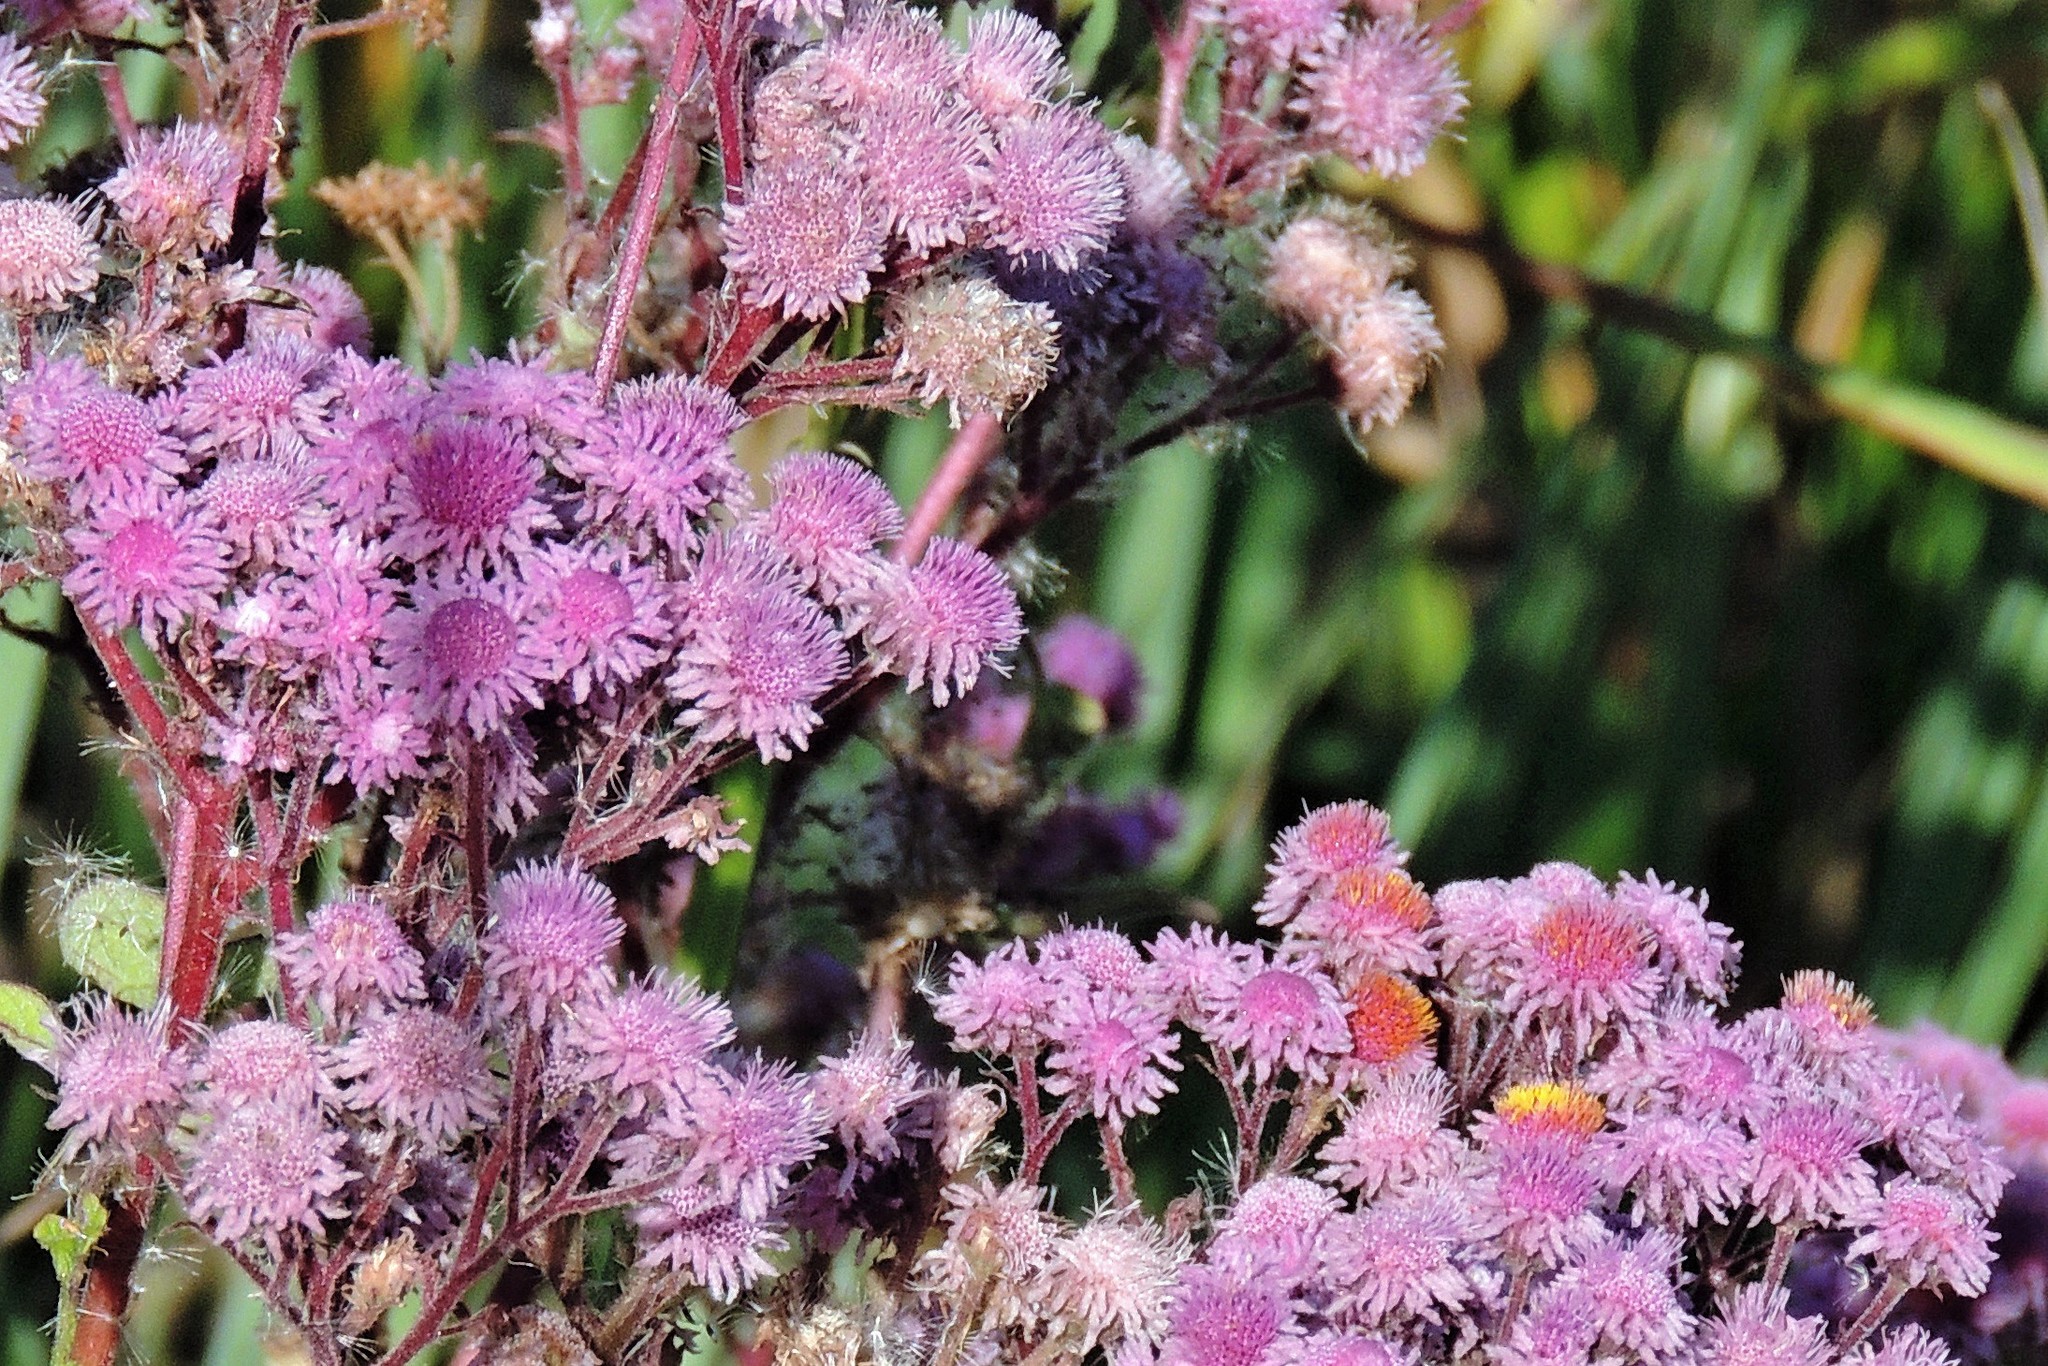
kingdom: Plantae
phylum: Tracheophyta
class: Magnoliopsida
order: Asterales
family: Asteraceae
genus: Urolepis
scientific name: Urolepis hecatantha
